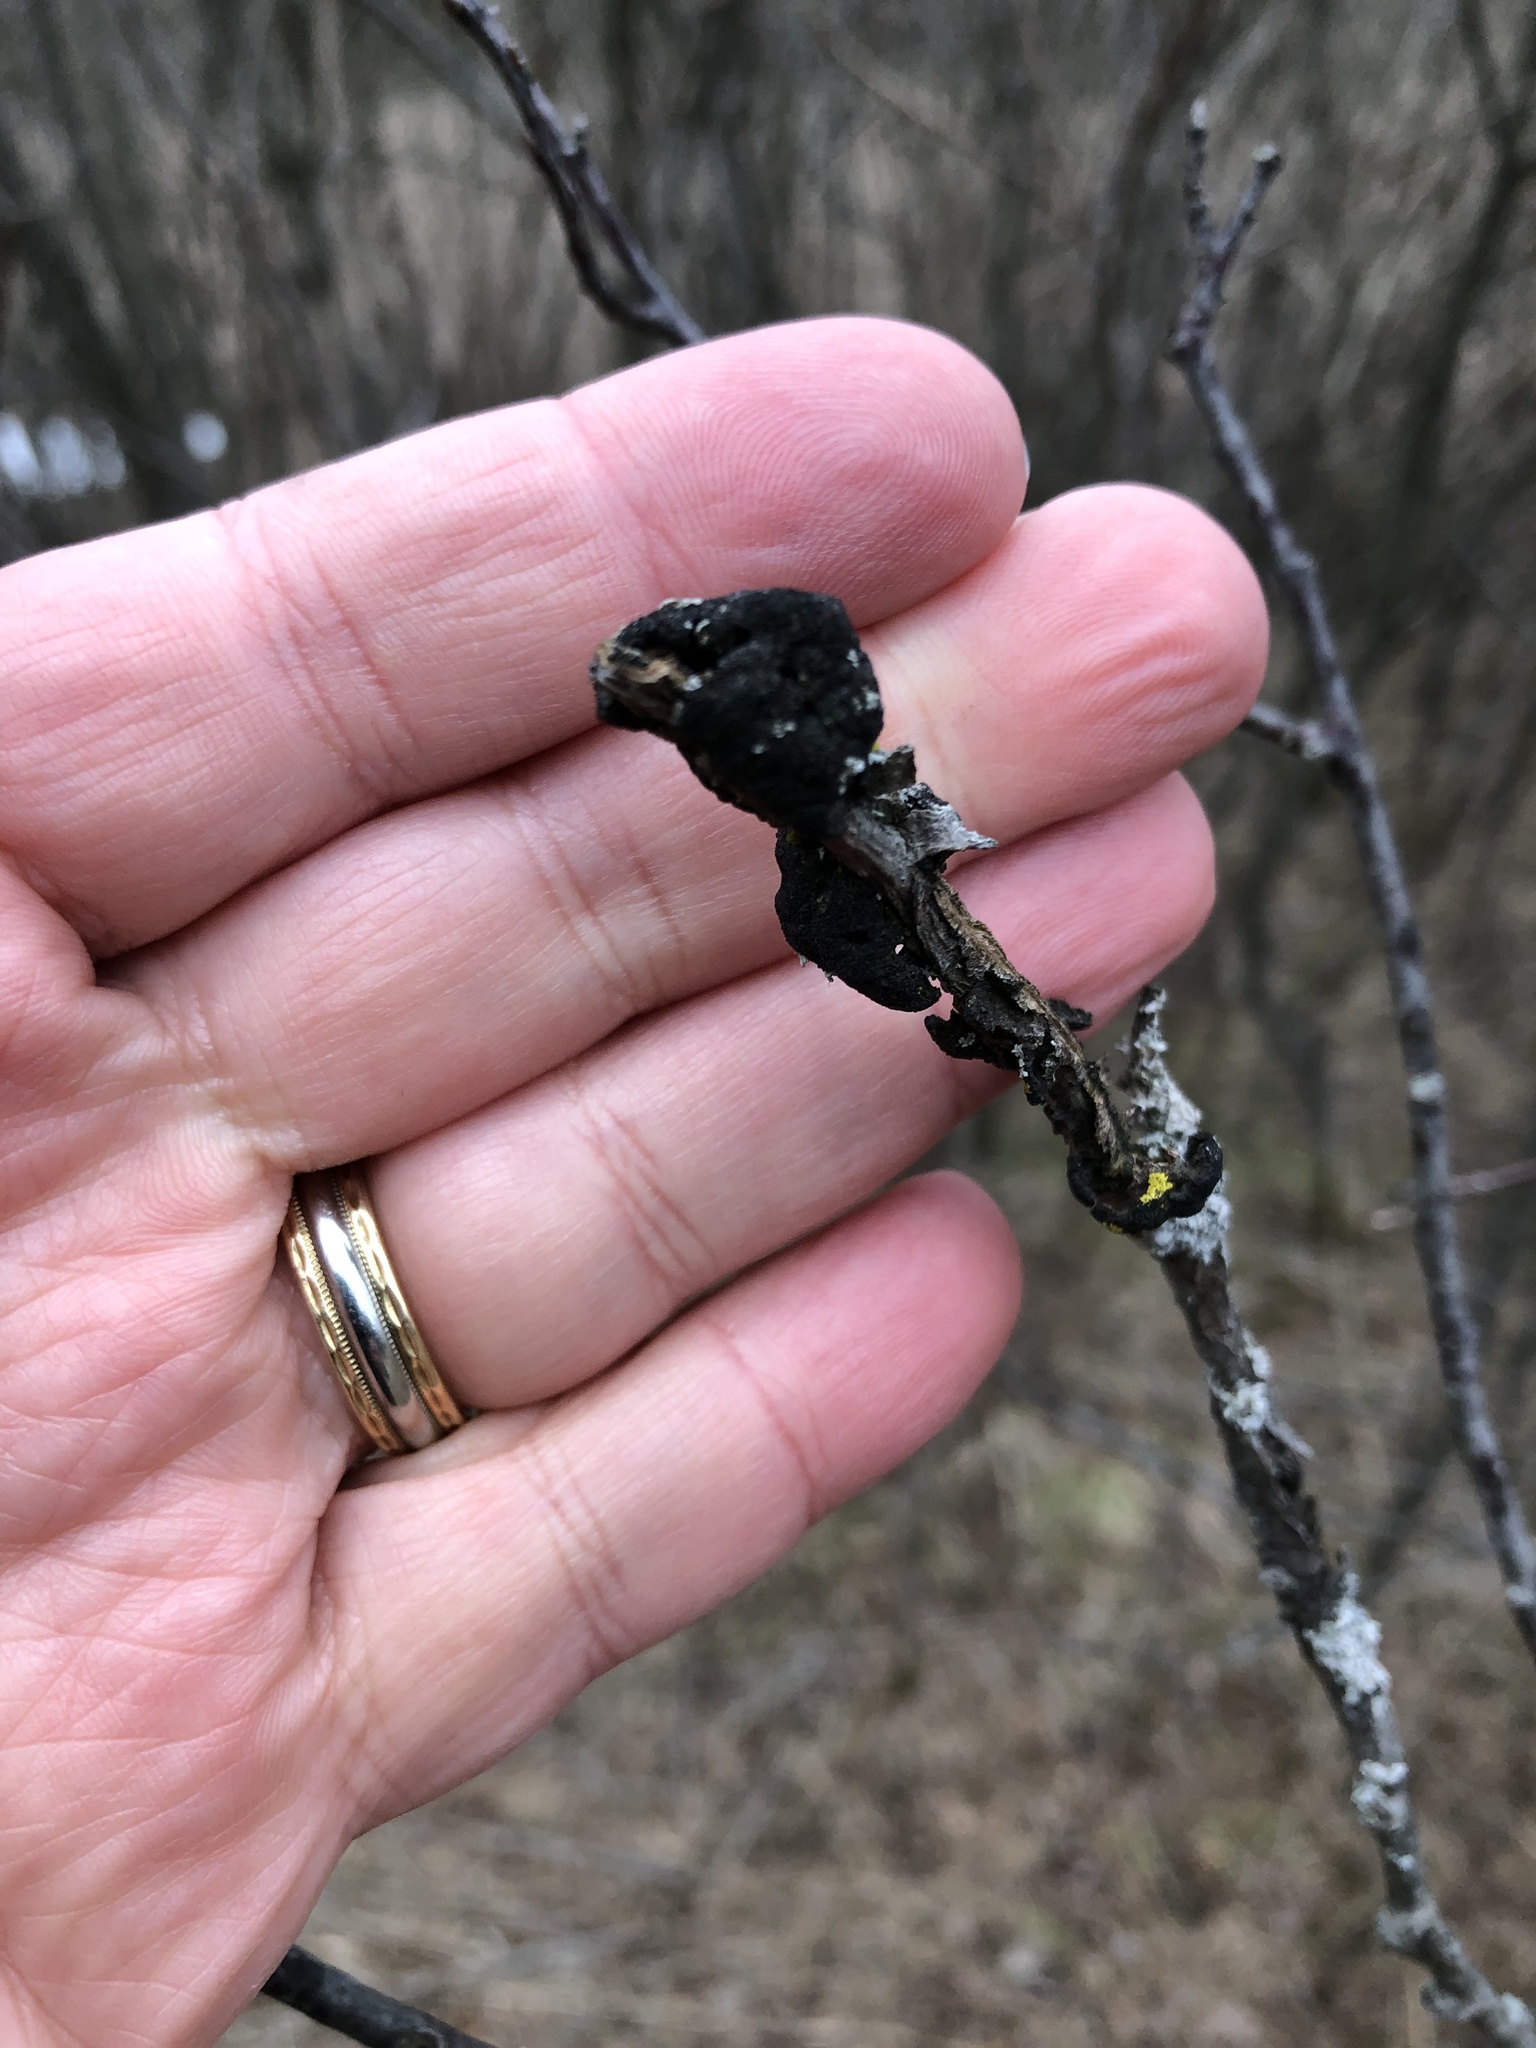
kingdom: Fungi
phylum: Ascomycota
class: Dothideomycetes
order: Venturiales
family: Venturiaceae
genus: Apiosporina
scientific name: Apiosporina morbosa
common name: Black knot
